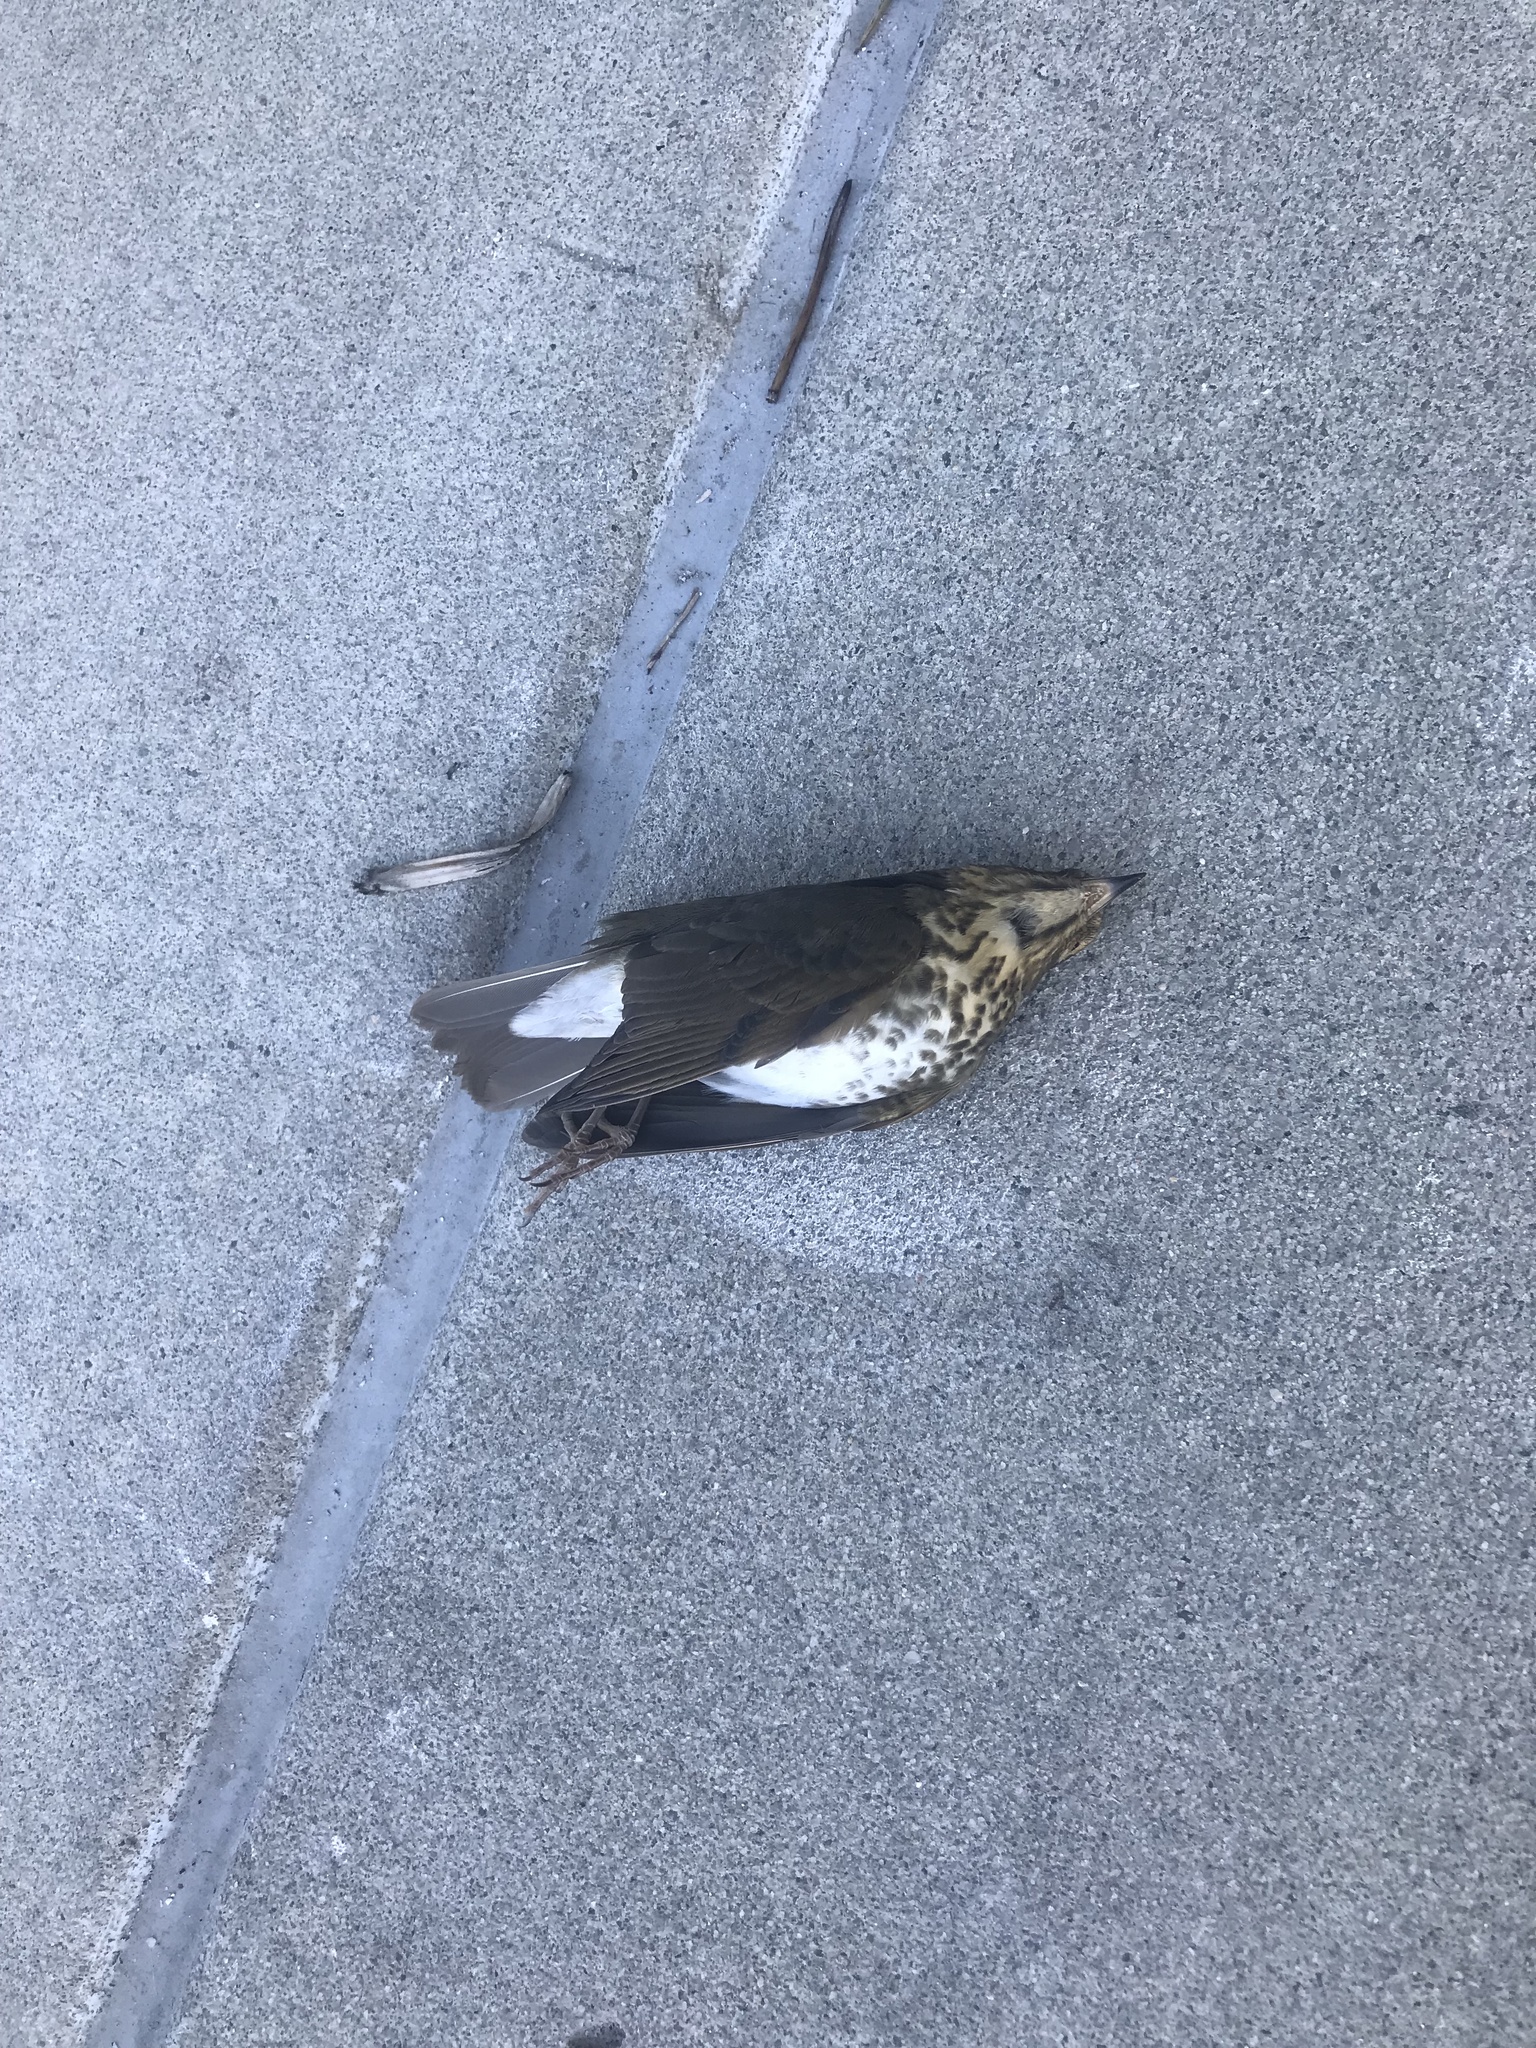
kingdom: Animalia
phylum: Chordata
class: Aves
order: Passeriformes
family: Turdidae
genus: Catharus
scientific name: Catharus ustulatus
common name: Swainson's thrush
